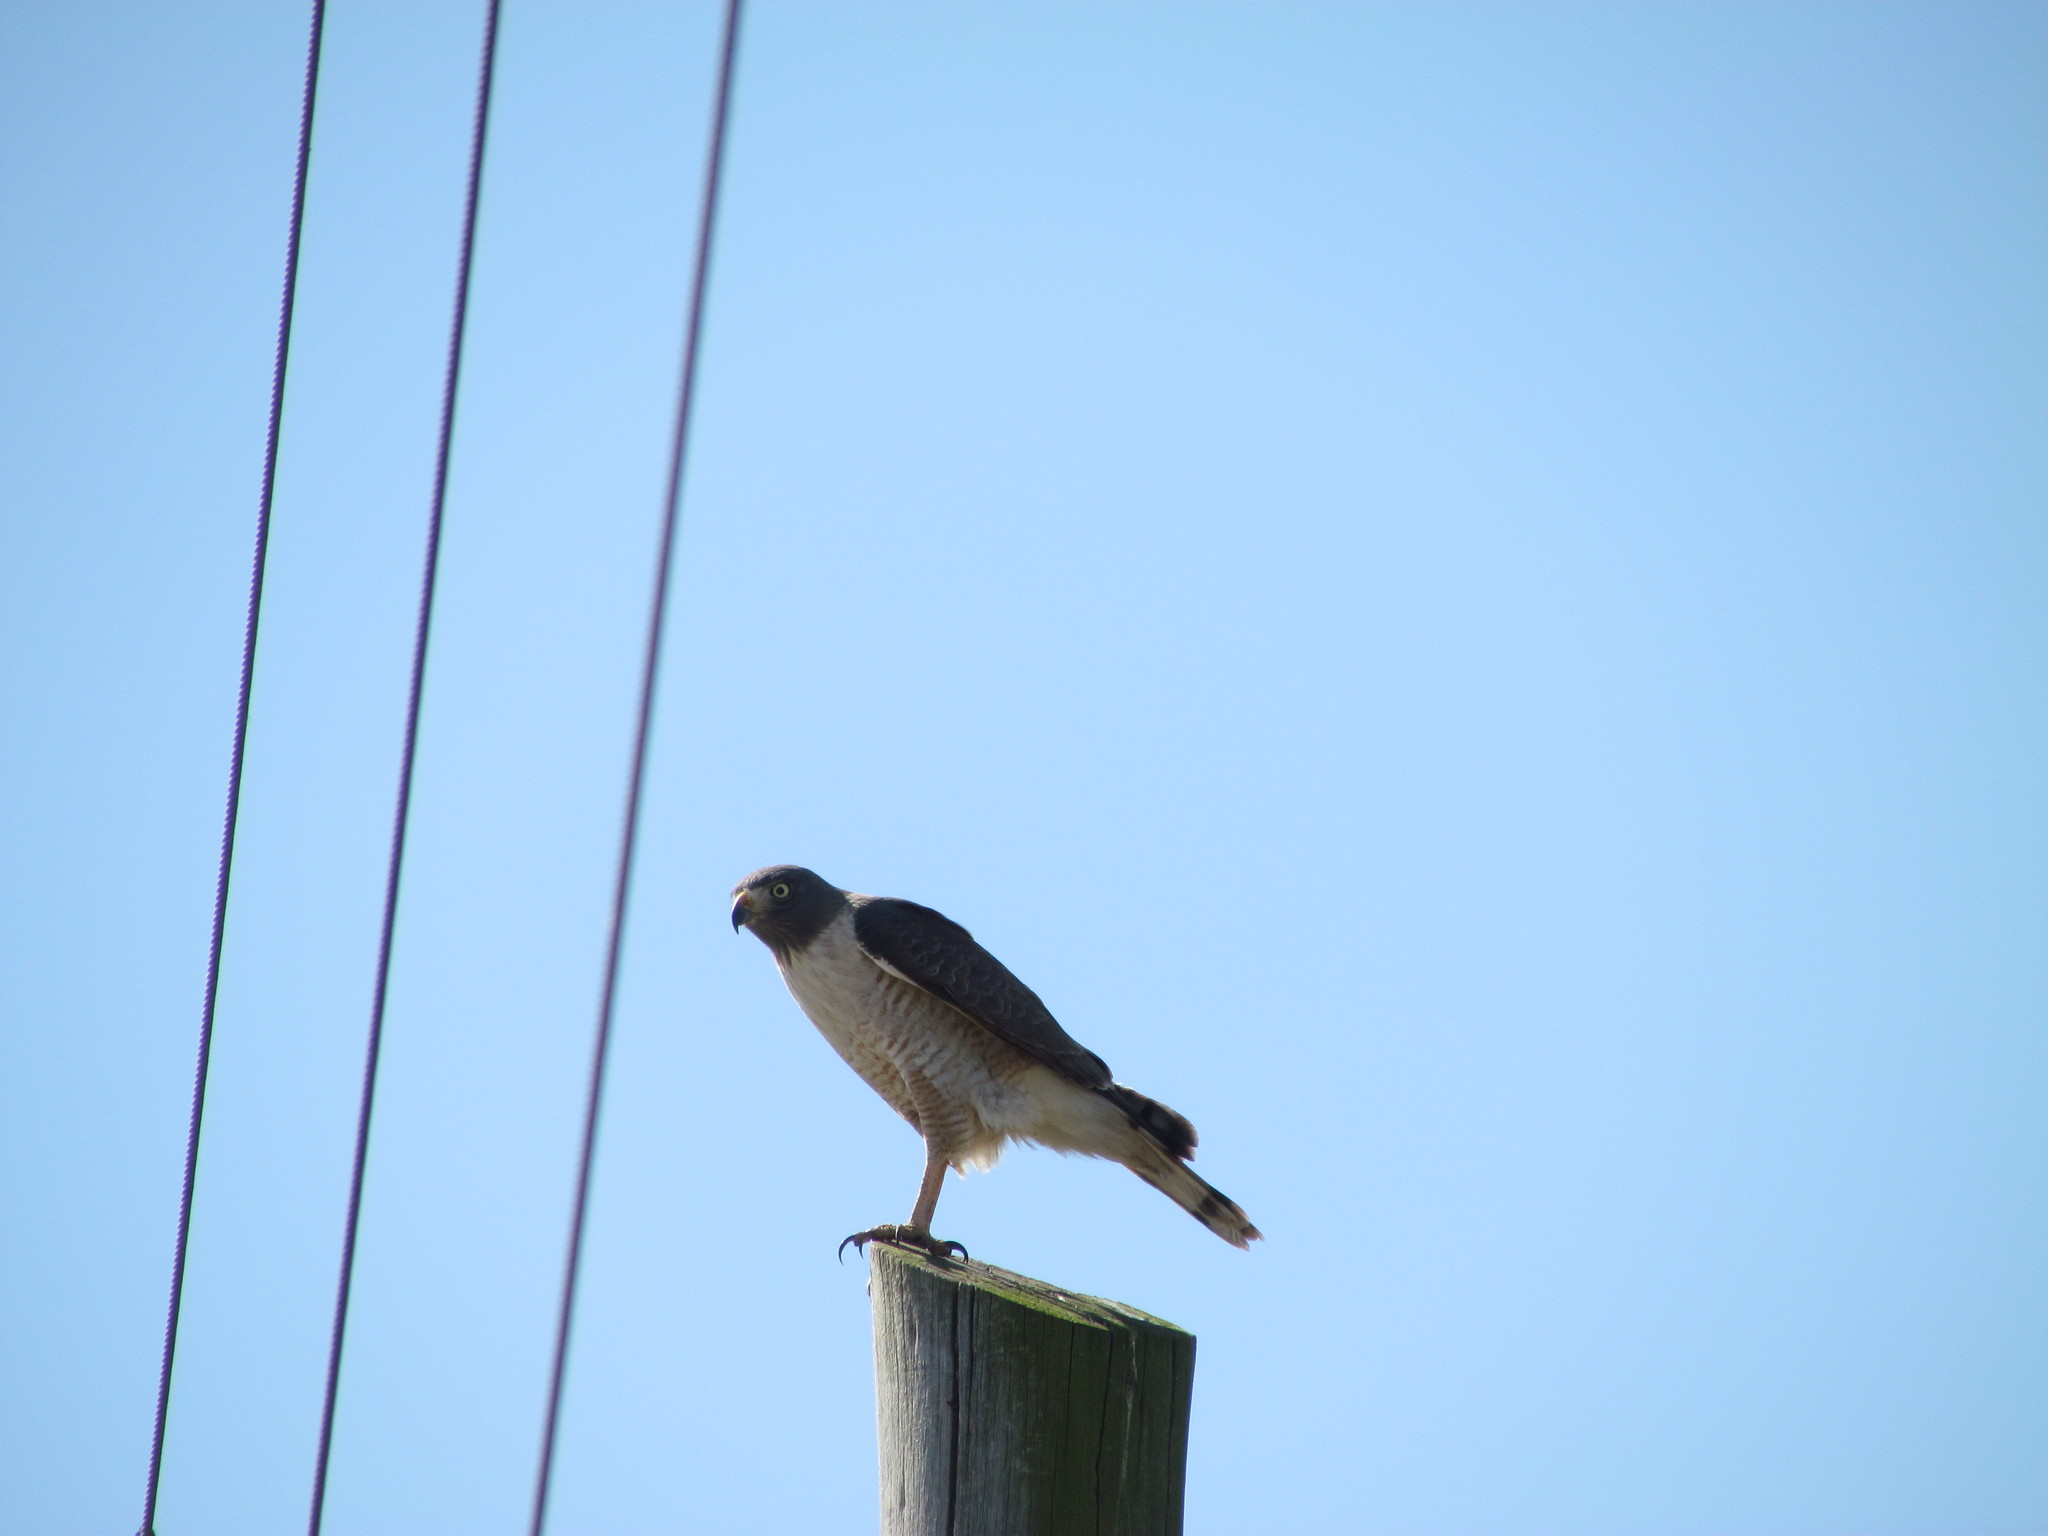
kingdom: Animalia
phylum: Chordata
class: Aves
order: Accipitriformes
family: Accipitridae
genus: Rupornis
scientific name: Rupornis magnirostris
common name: Roadside hawk
